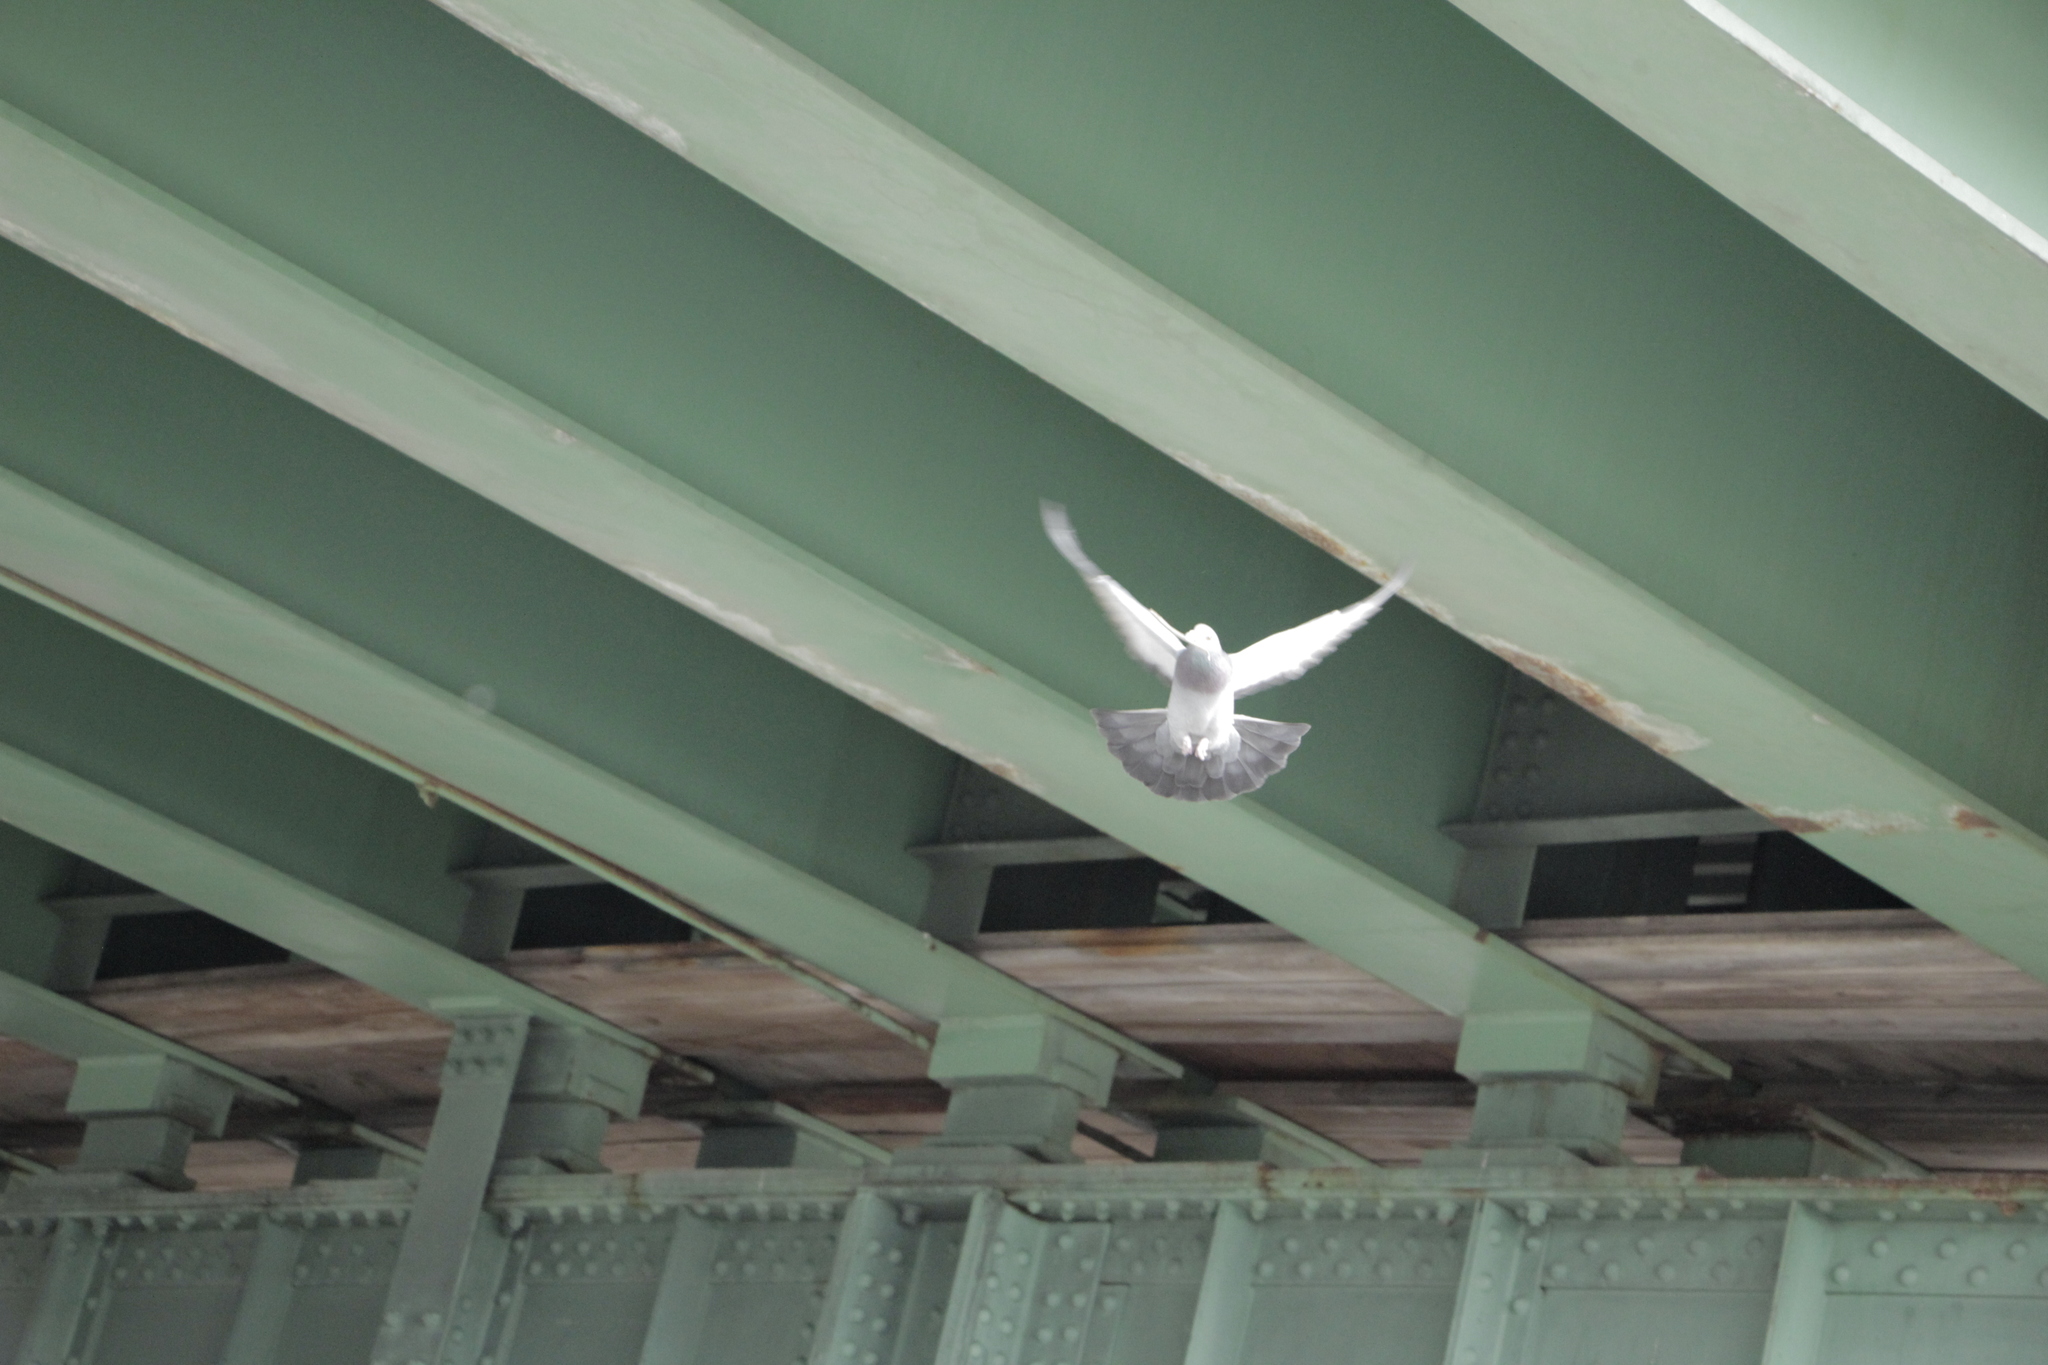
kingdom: Animalia
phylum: Chordata
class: Aves
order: Columbiformes
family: Columbidae
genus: Columba
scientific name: Columba livia
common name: Rock pigeon
